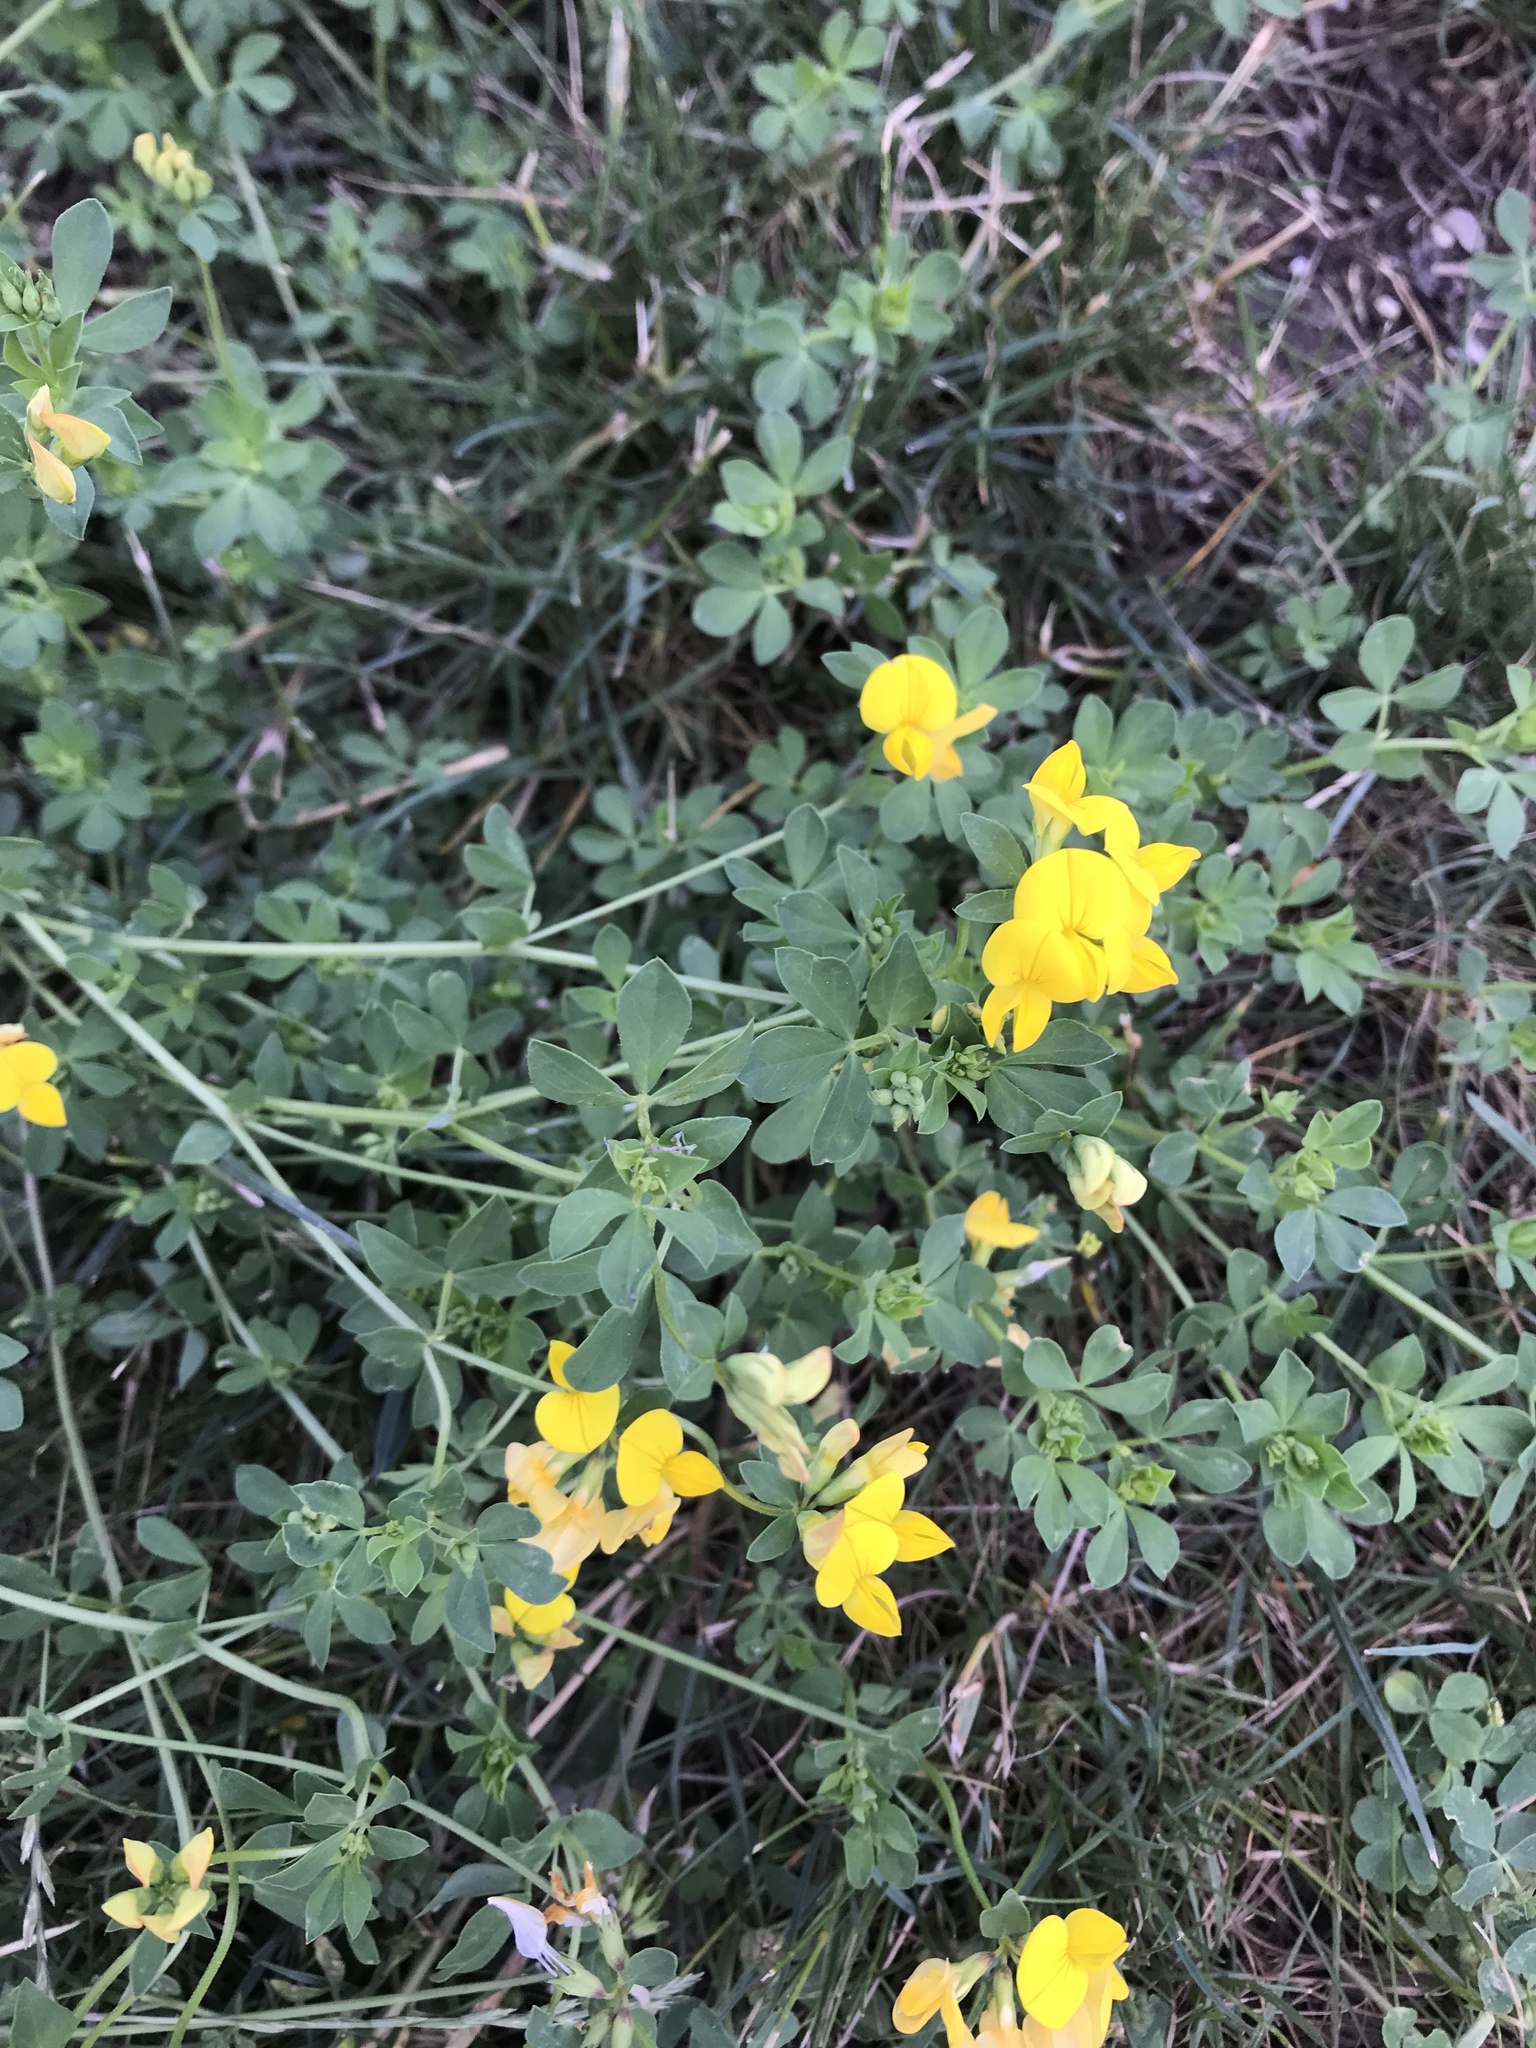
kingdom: Plantae
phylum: Tracheophyta
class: Magnoliopsida
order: Fabales
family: Fabaceae
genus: Lotus
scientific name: Lotus corniculatus
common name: Common bird's-foot-trefoil
